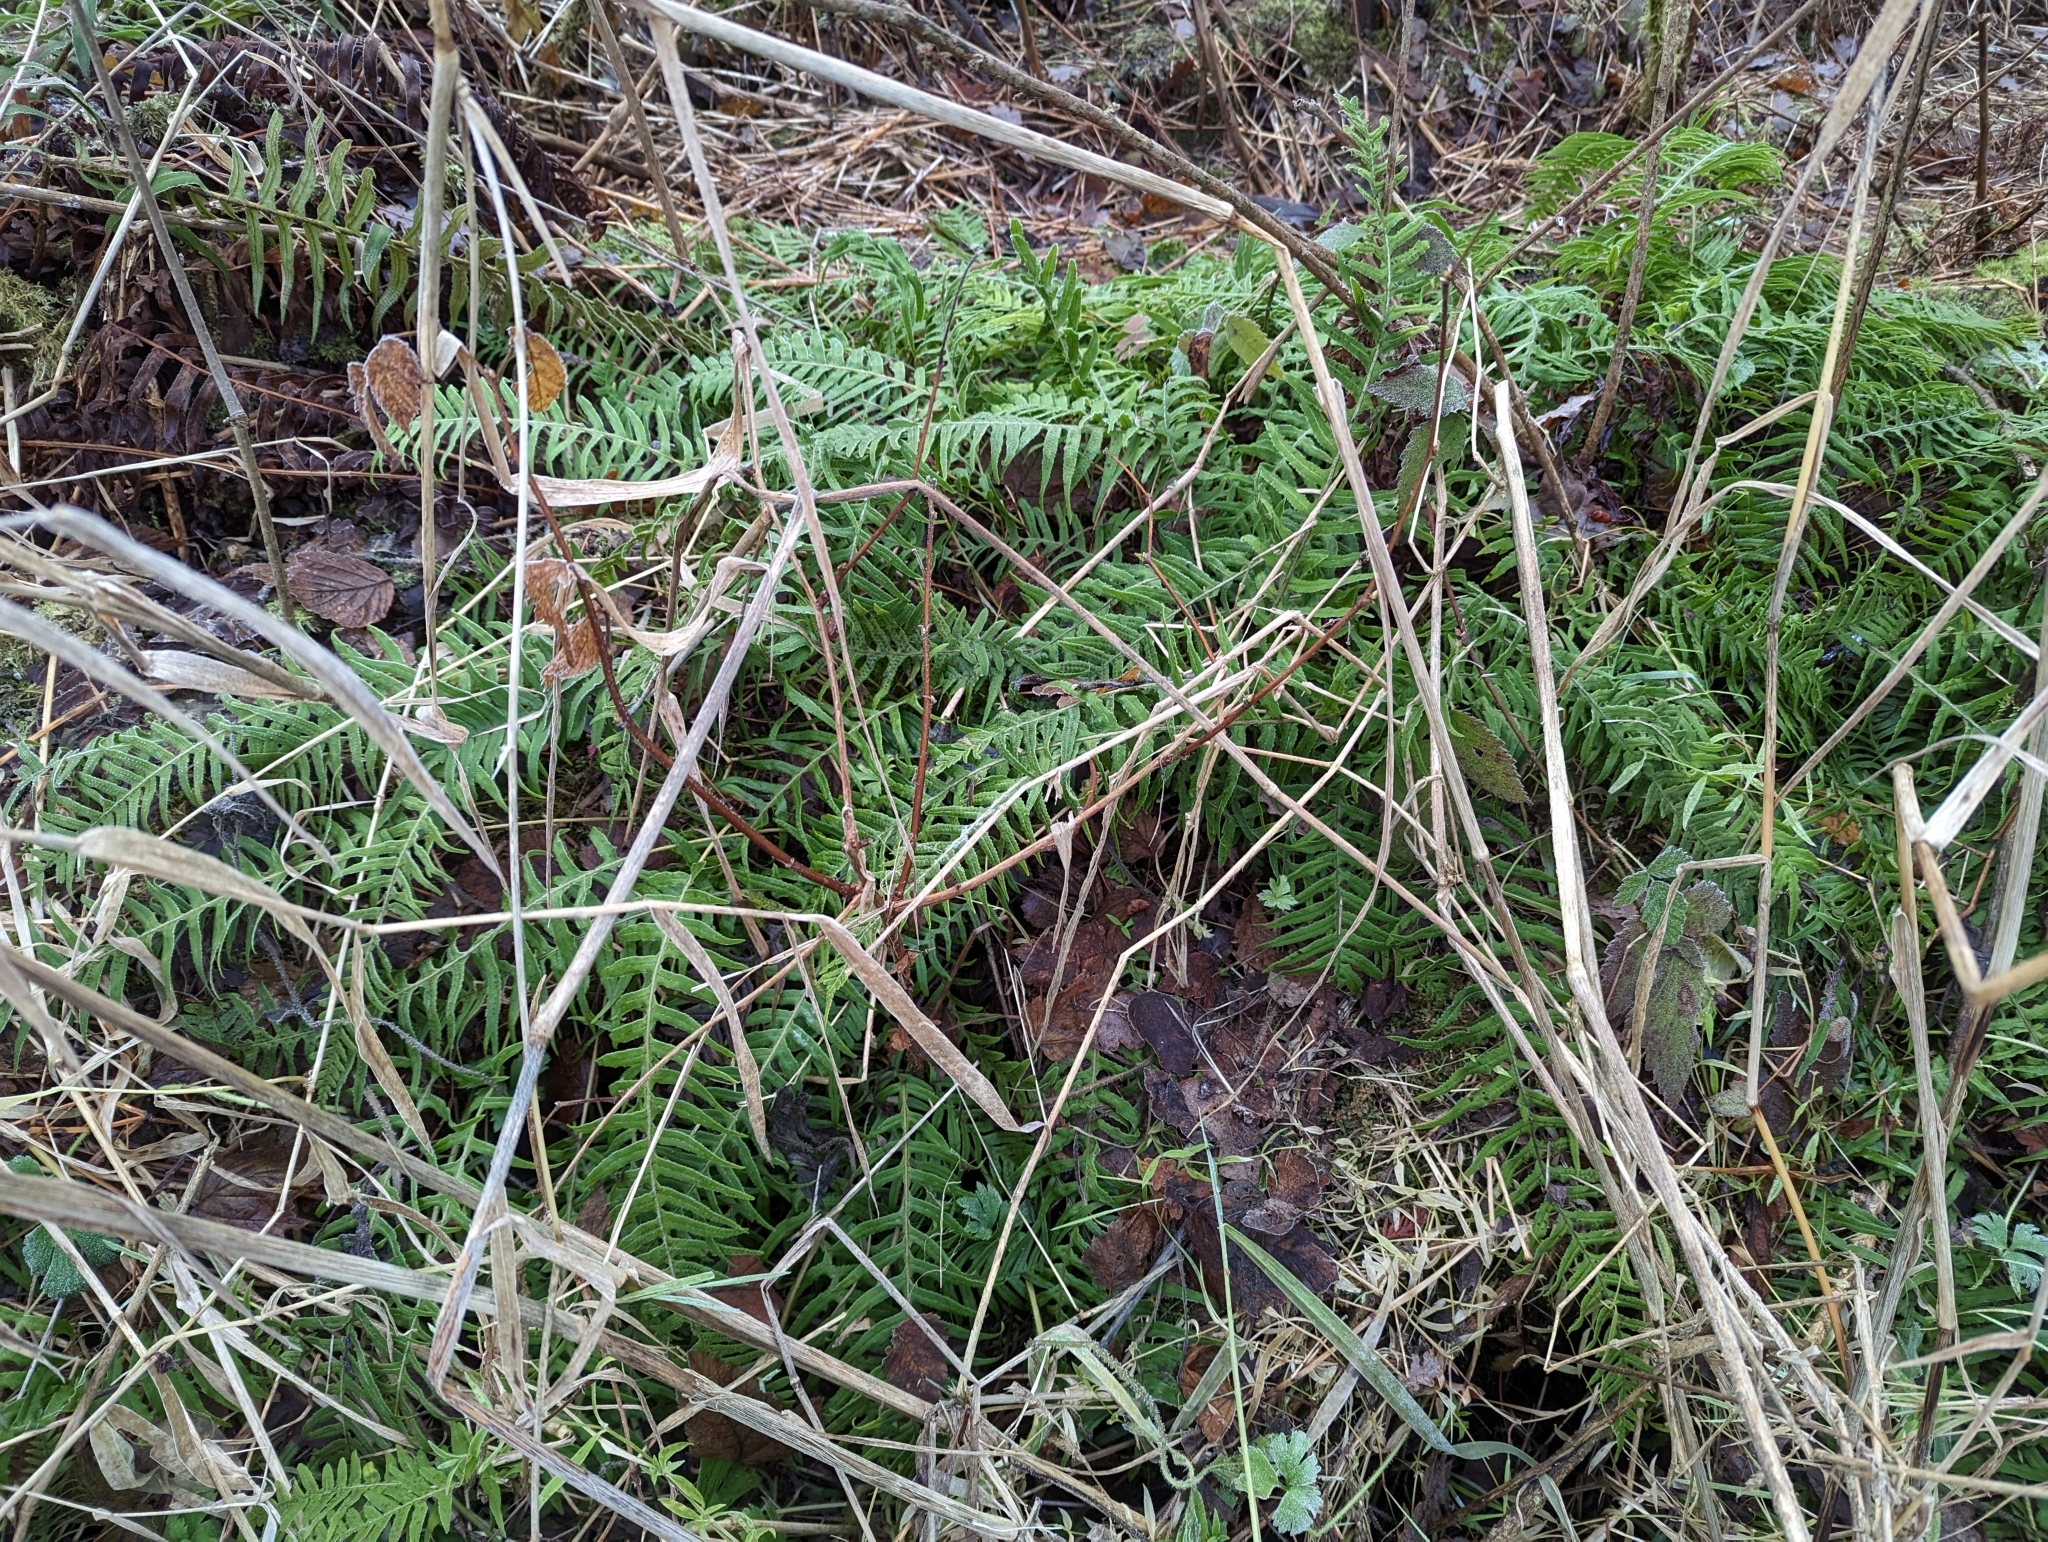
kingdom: Plantae
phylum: Tracheophyta
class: Polypodiopsida
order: Polypodiales
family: Polypodiaceae
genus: Polypodium
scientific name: Polypodium glycyrrhiza
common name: Licorice fern
